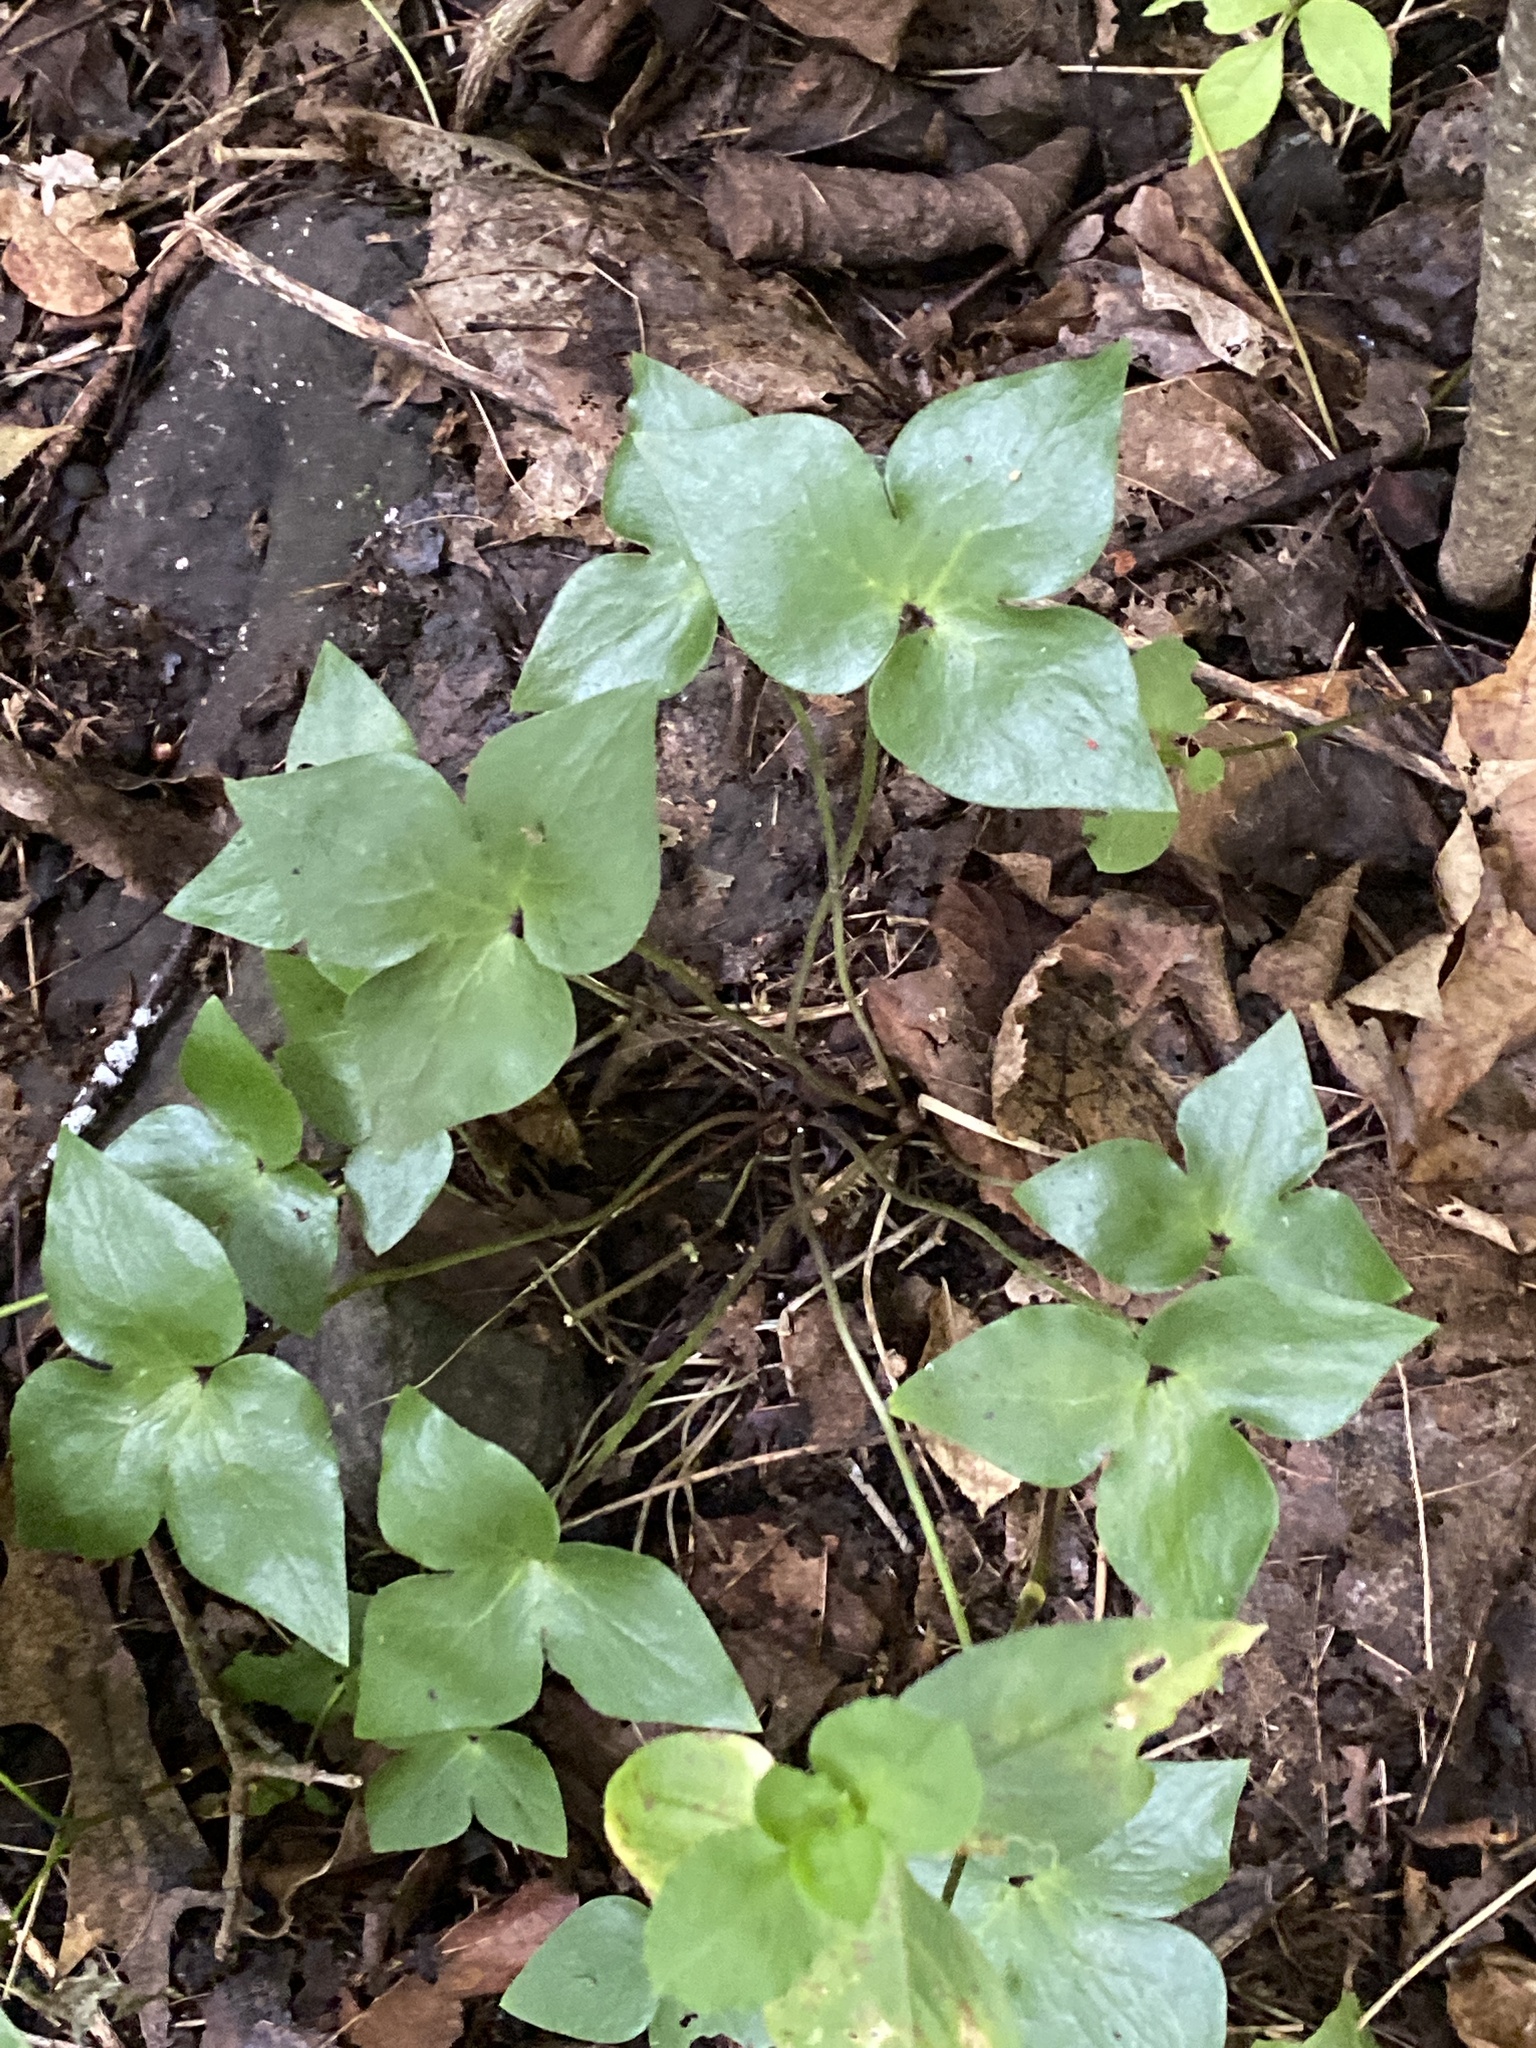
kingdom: Plantae
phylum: Tracheophyta
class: Magnoliopsida
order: Ranunculales
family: Ranunculaceae
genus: Hepatica
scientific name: Hepatica acutiloba
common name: Sharp-lobed hepatica
